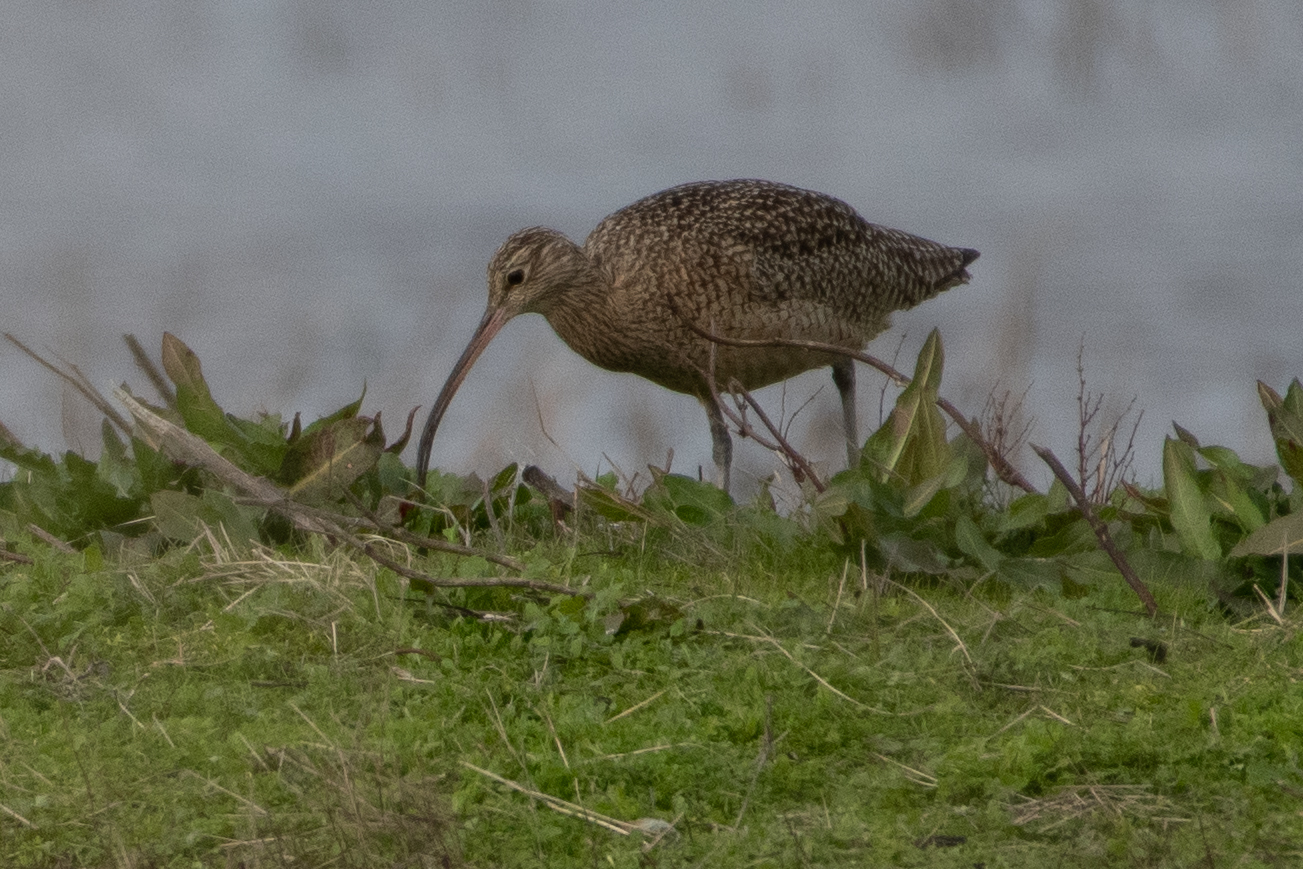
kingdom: Animalia
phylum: Chordata
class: Aves
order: Charadriiformes
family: Scolopacidae
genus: Numenius
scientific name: Numenius americanus
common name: Long-billed curlew
